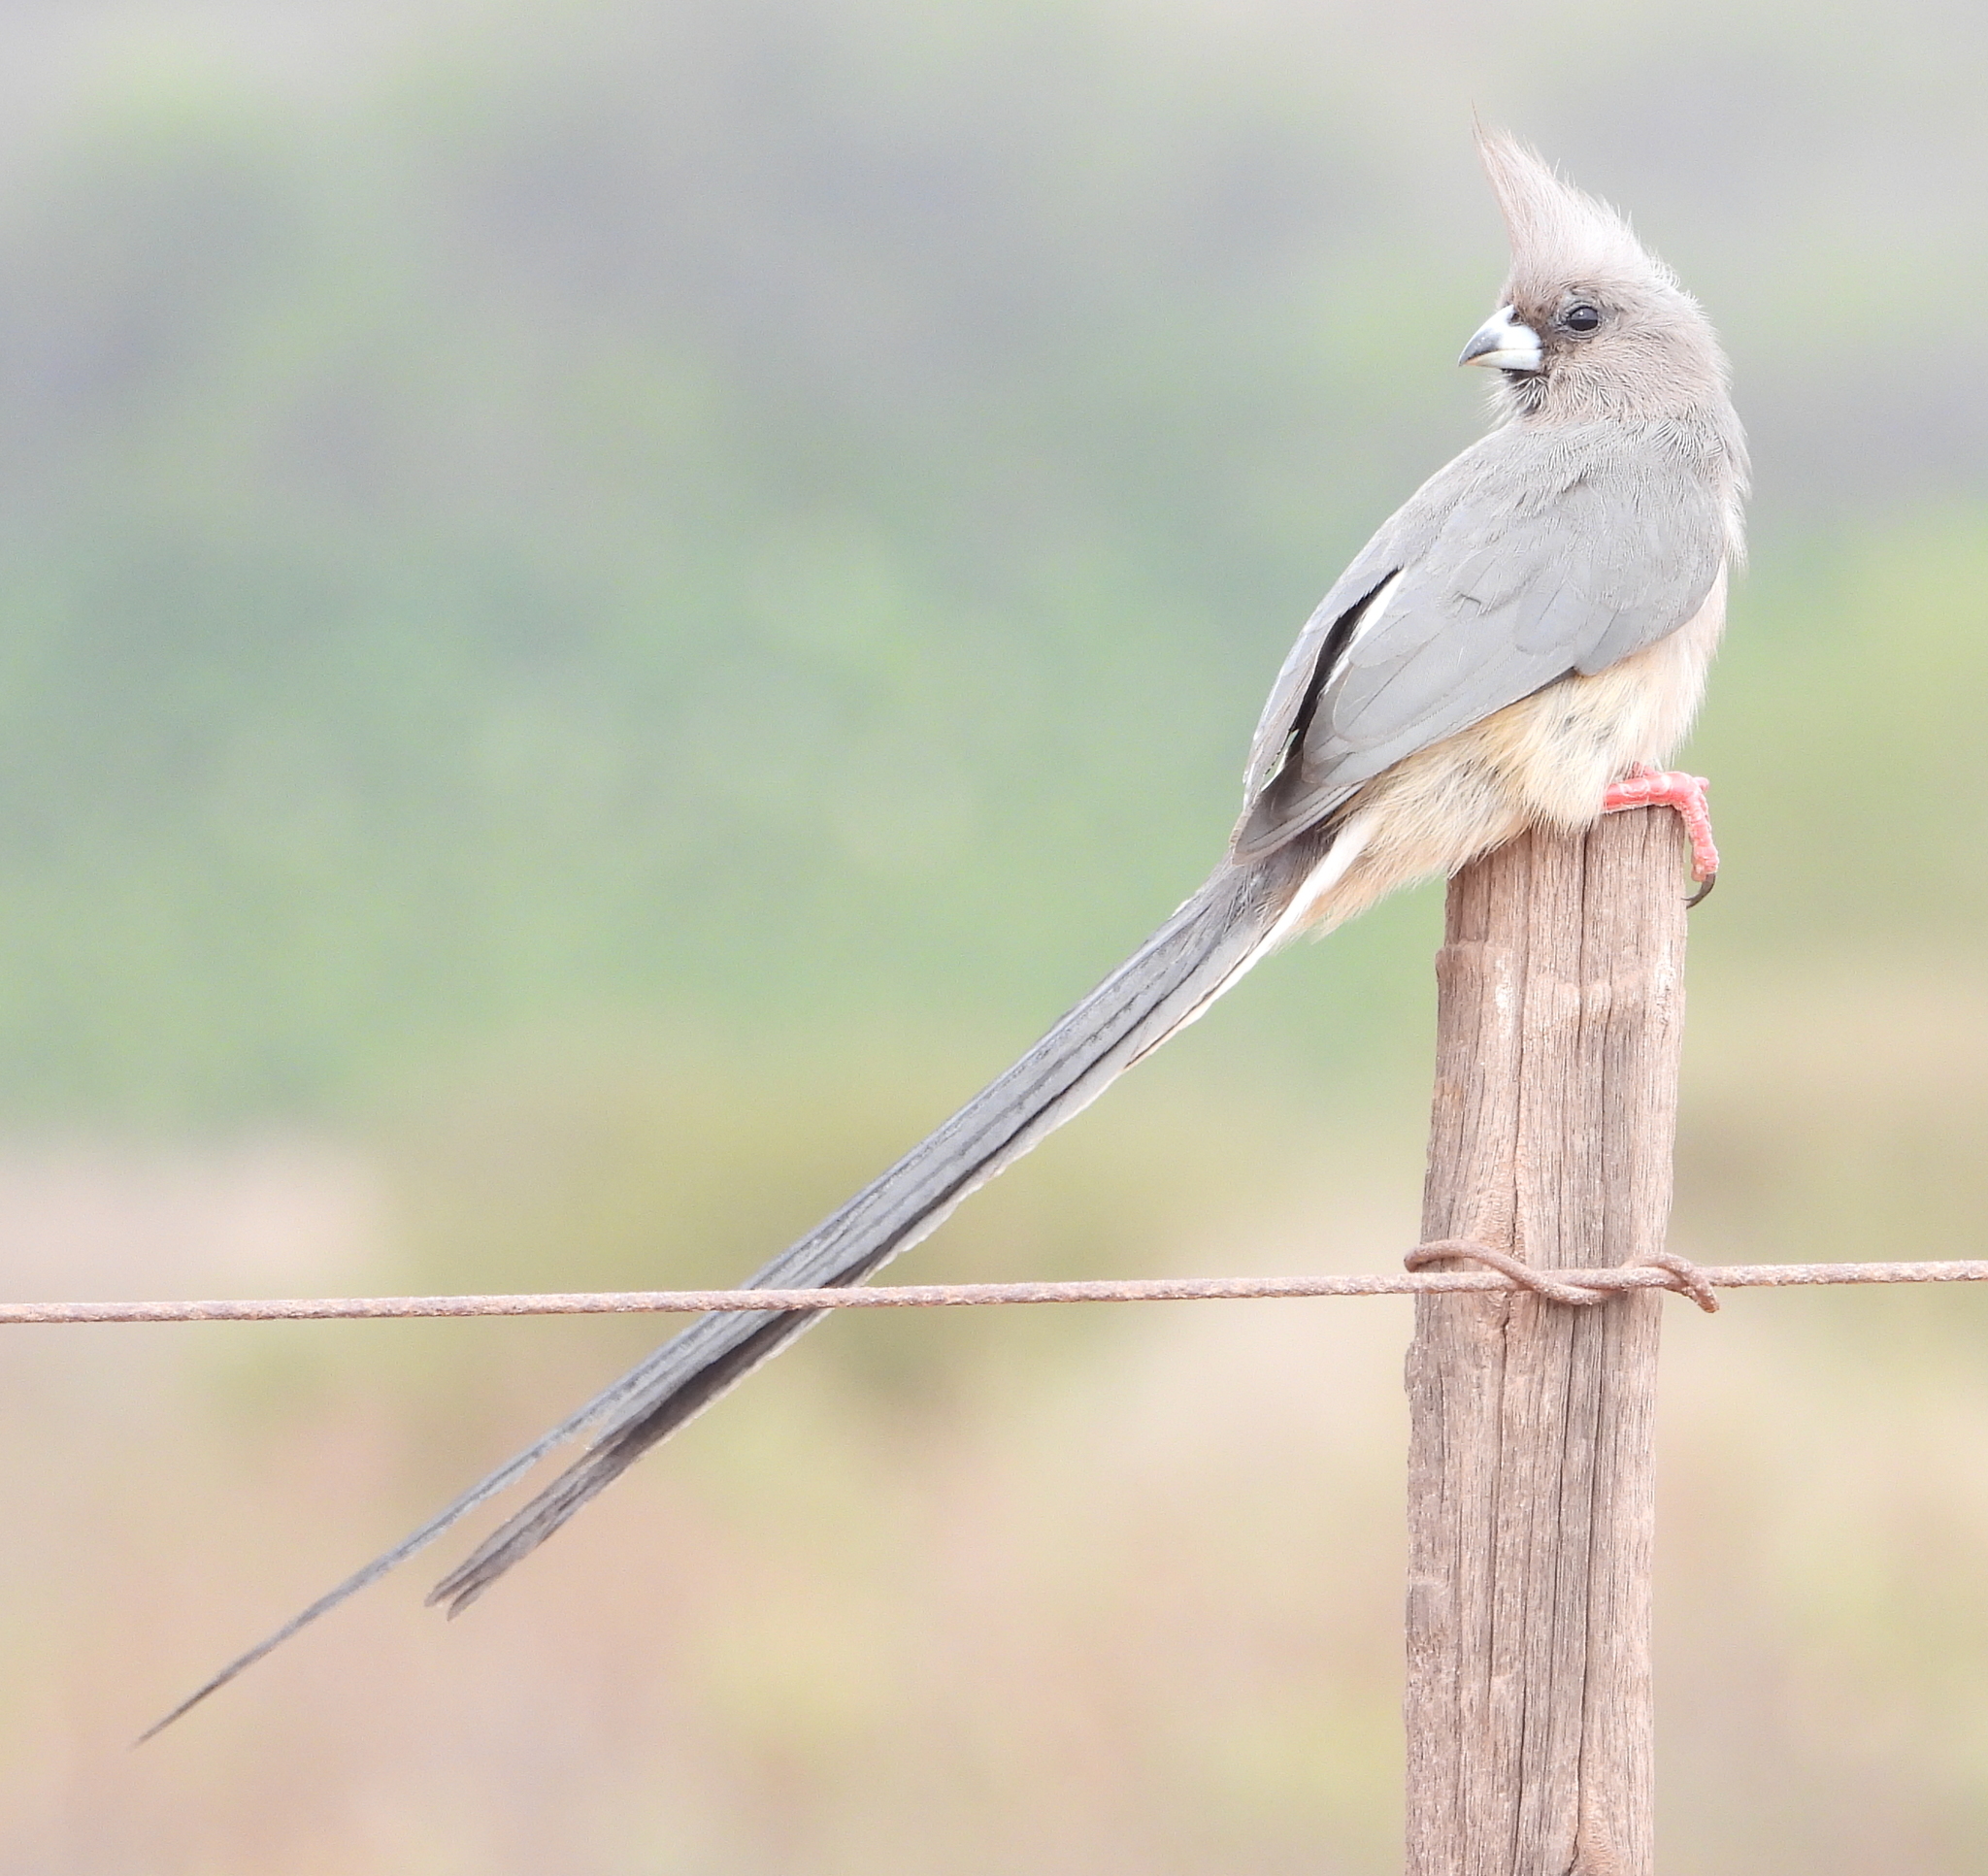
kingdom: Animalia
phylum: Chordata
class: Aves
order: Coliiformes
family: Coliidae
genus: Colius
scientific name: Colius colius
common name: White-backed mousebird
